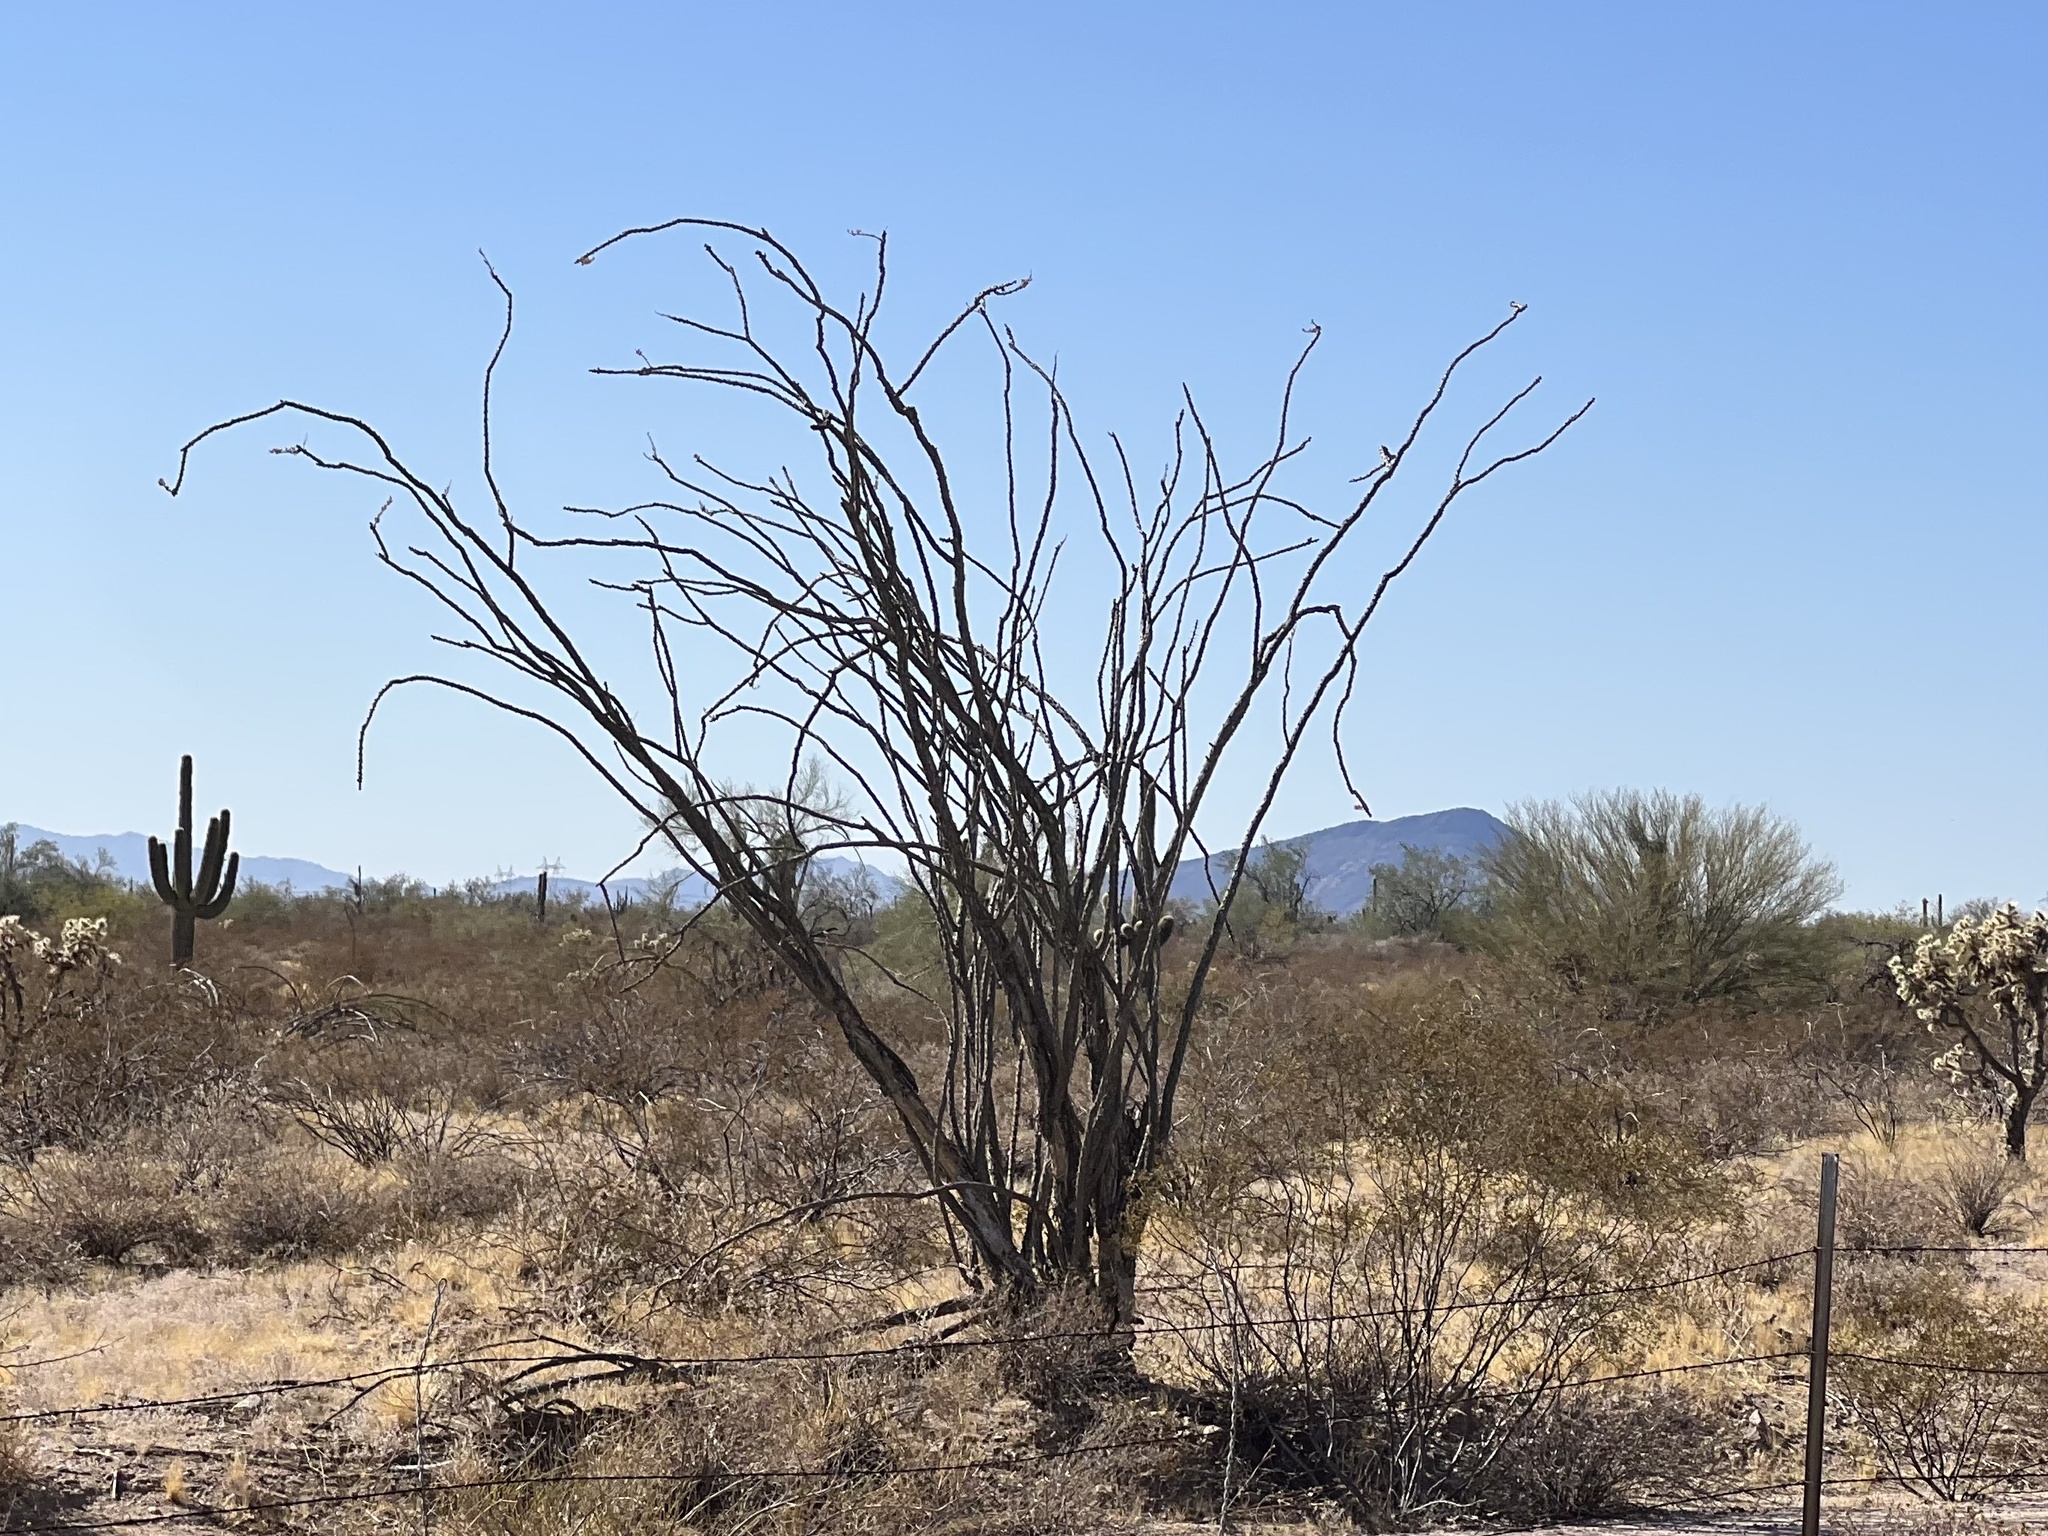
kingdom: Plantae
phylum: Tracheophyta
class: Magnoliopsida
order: Ericales
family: Fouquieriaceae
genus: Fouquieria
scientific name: Fouquieria splendens
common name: Vine-cactus
